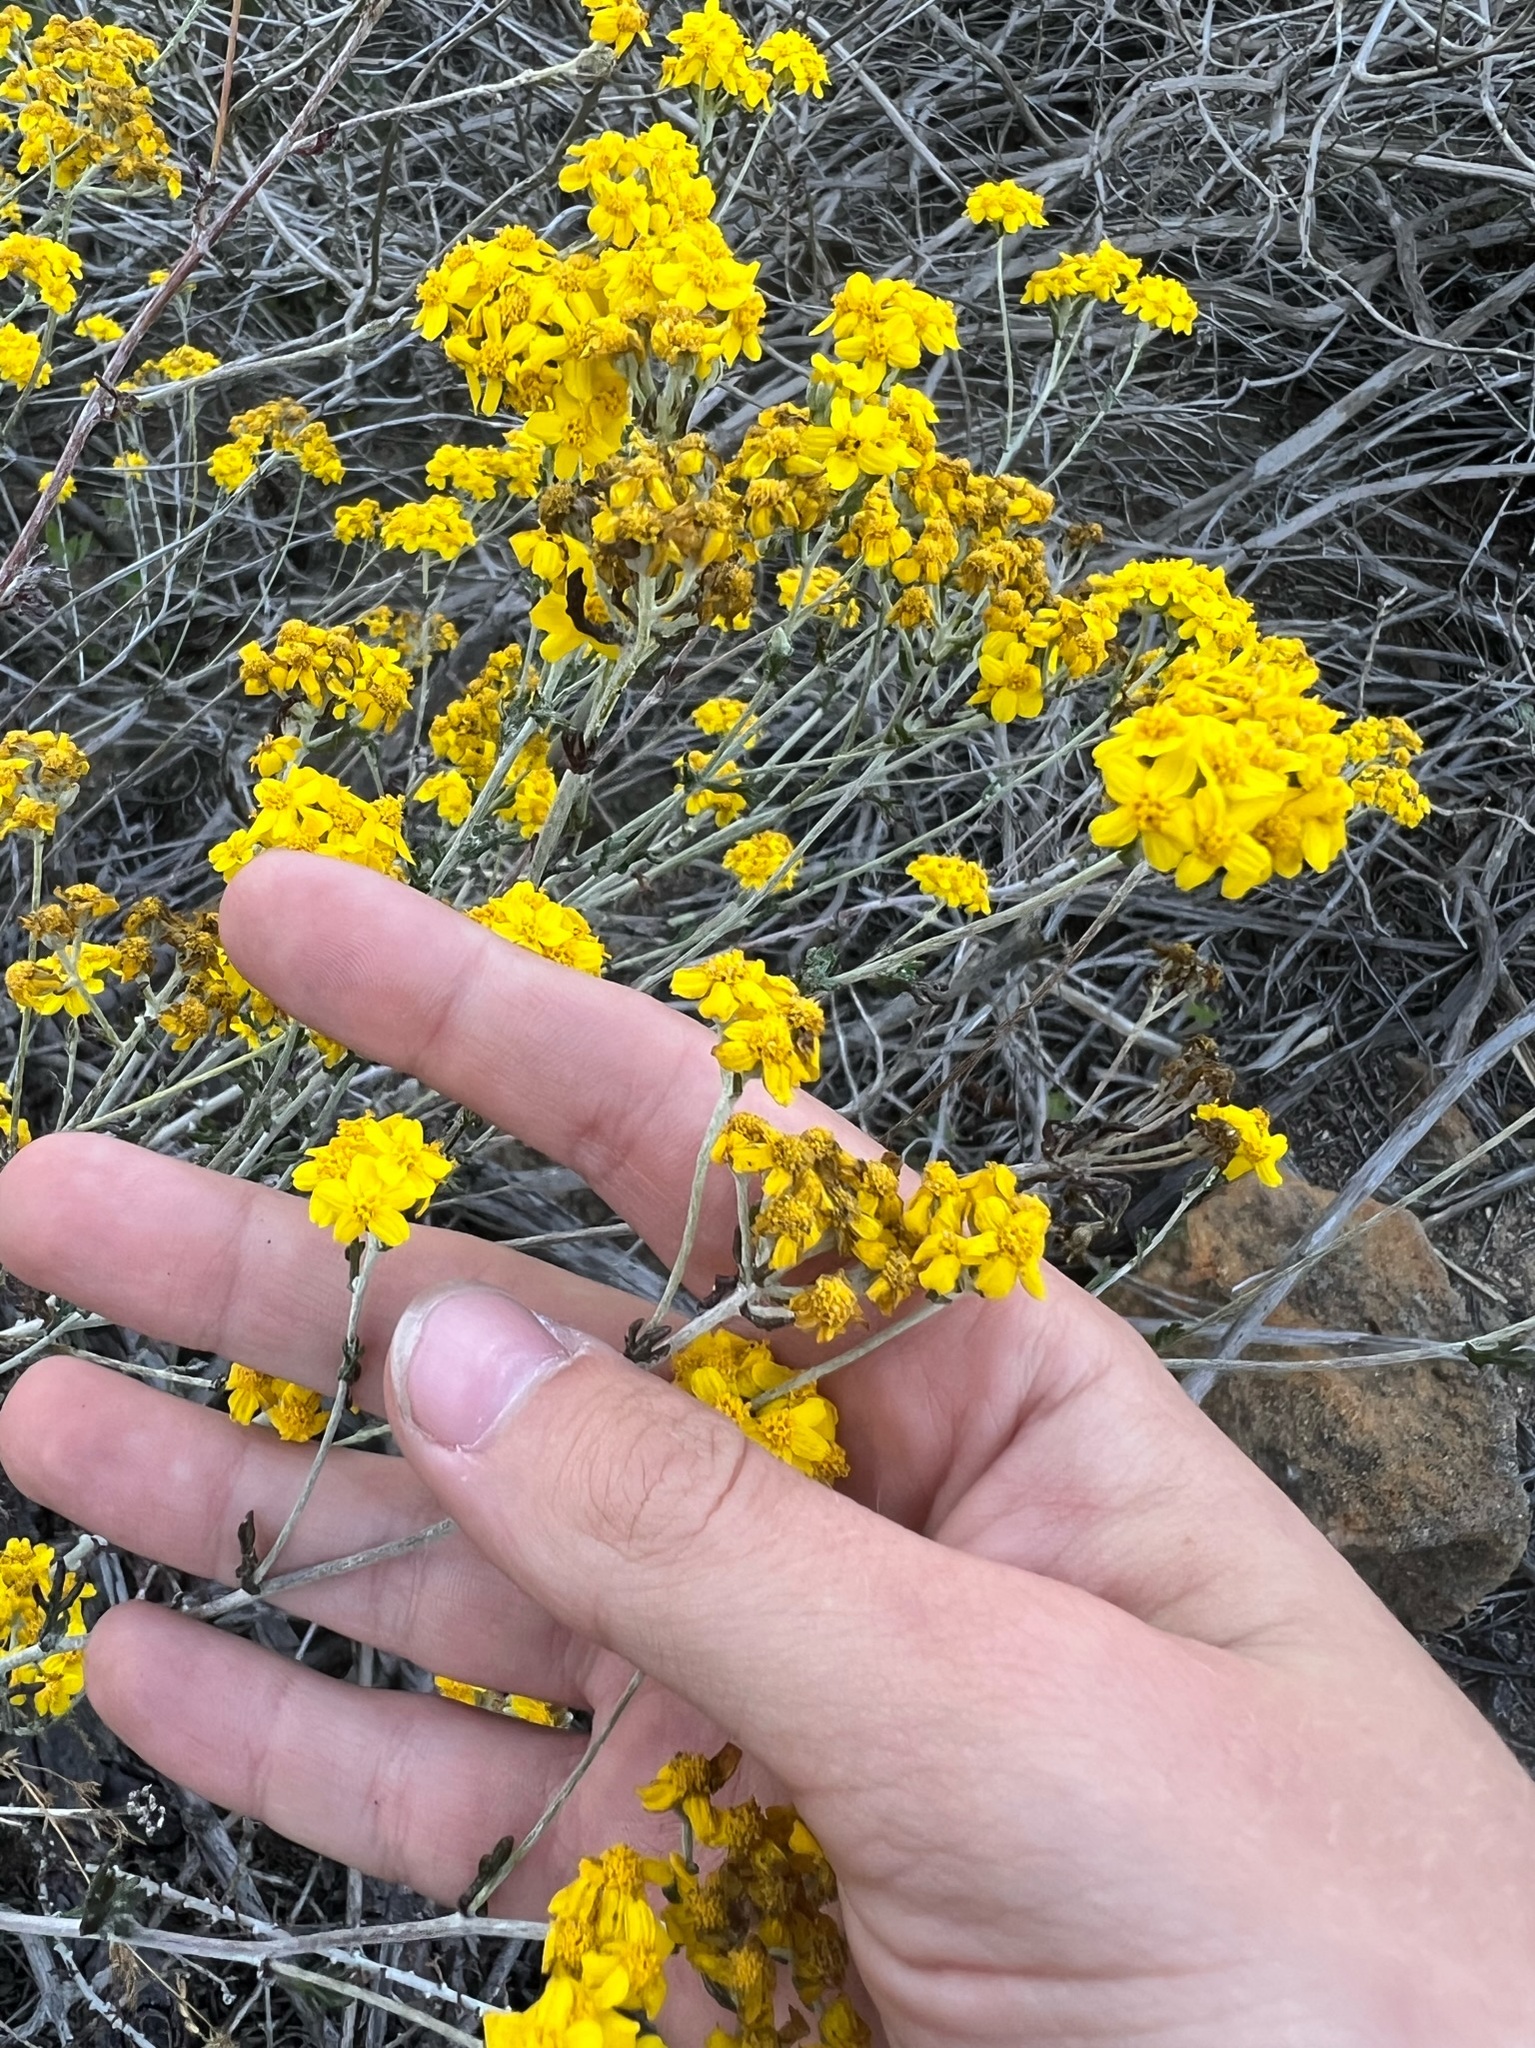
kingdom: Plantae
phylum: Tracheophyta
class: Magnoliopsida
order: Asterales
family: Asteraceae
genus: Eriophyllum
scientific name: Eriophyllum confertiflorum
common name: Golden-yarrow
